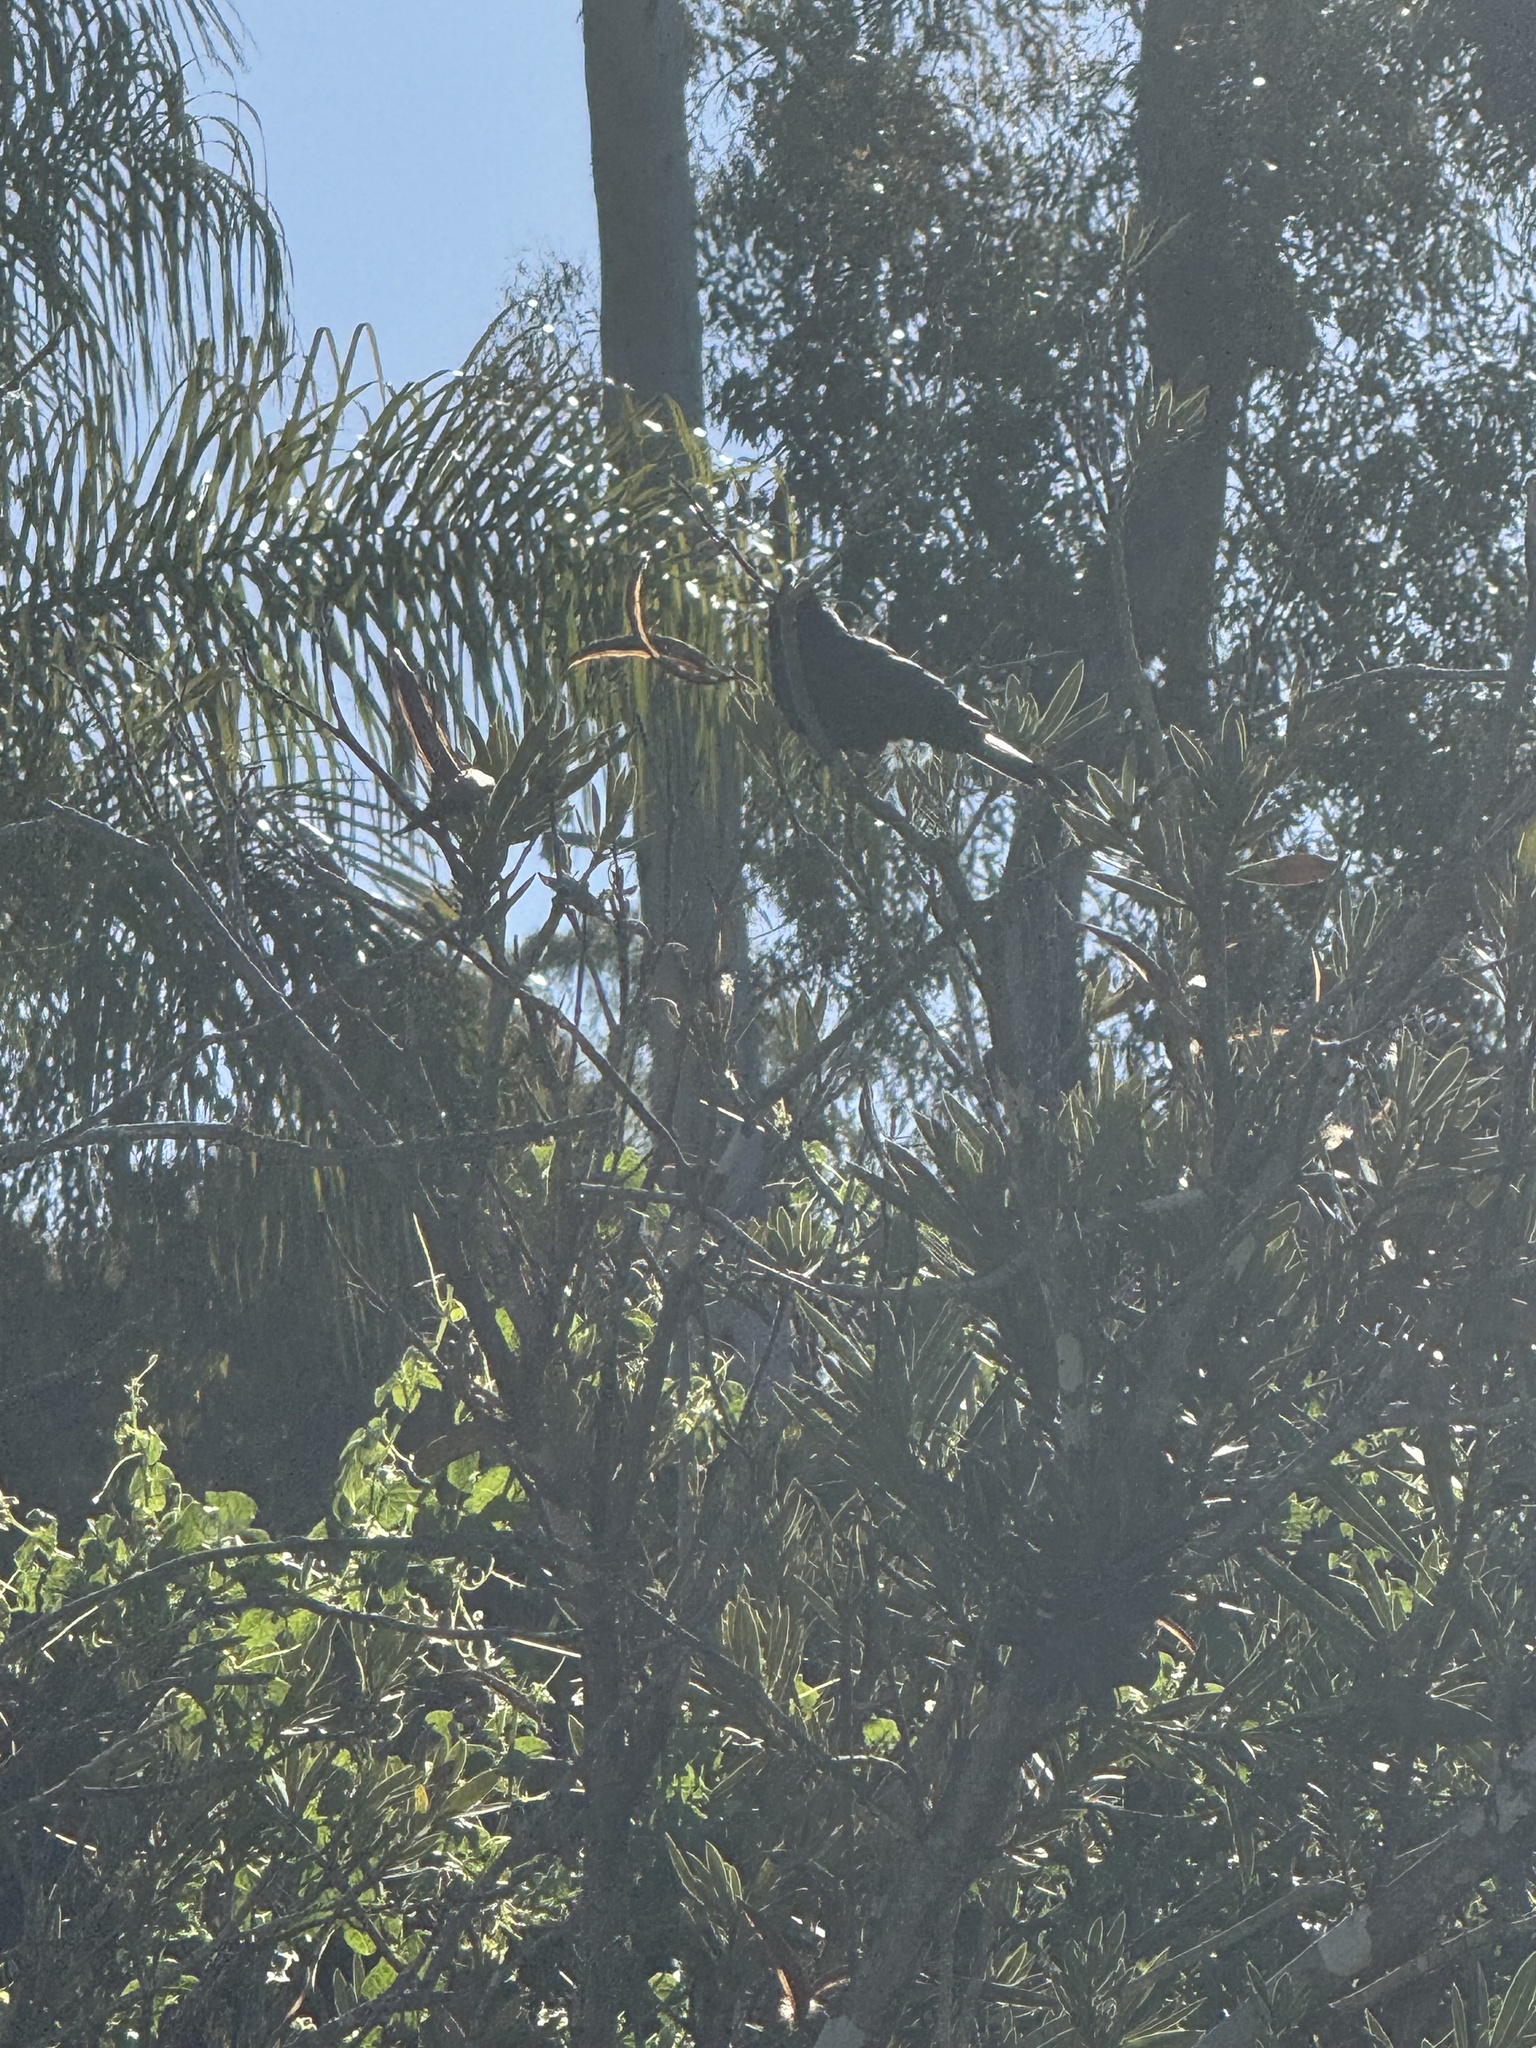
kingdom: Animalia
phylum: Chordata
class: Aves
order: Passeriformes
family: Ptilogonatidae
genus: Phainopepla
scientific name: Phainopepla nitens
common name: Phainopepla
